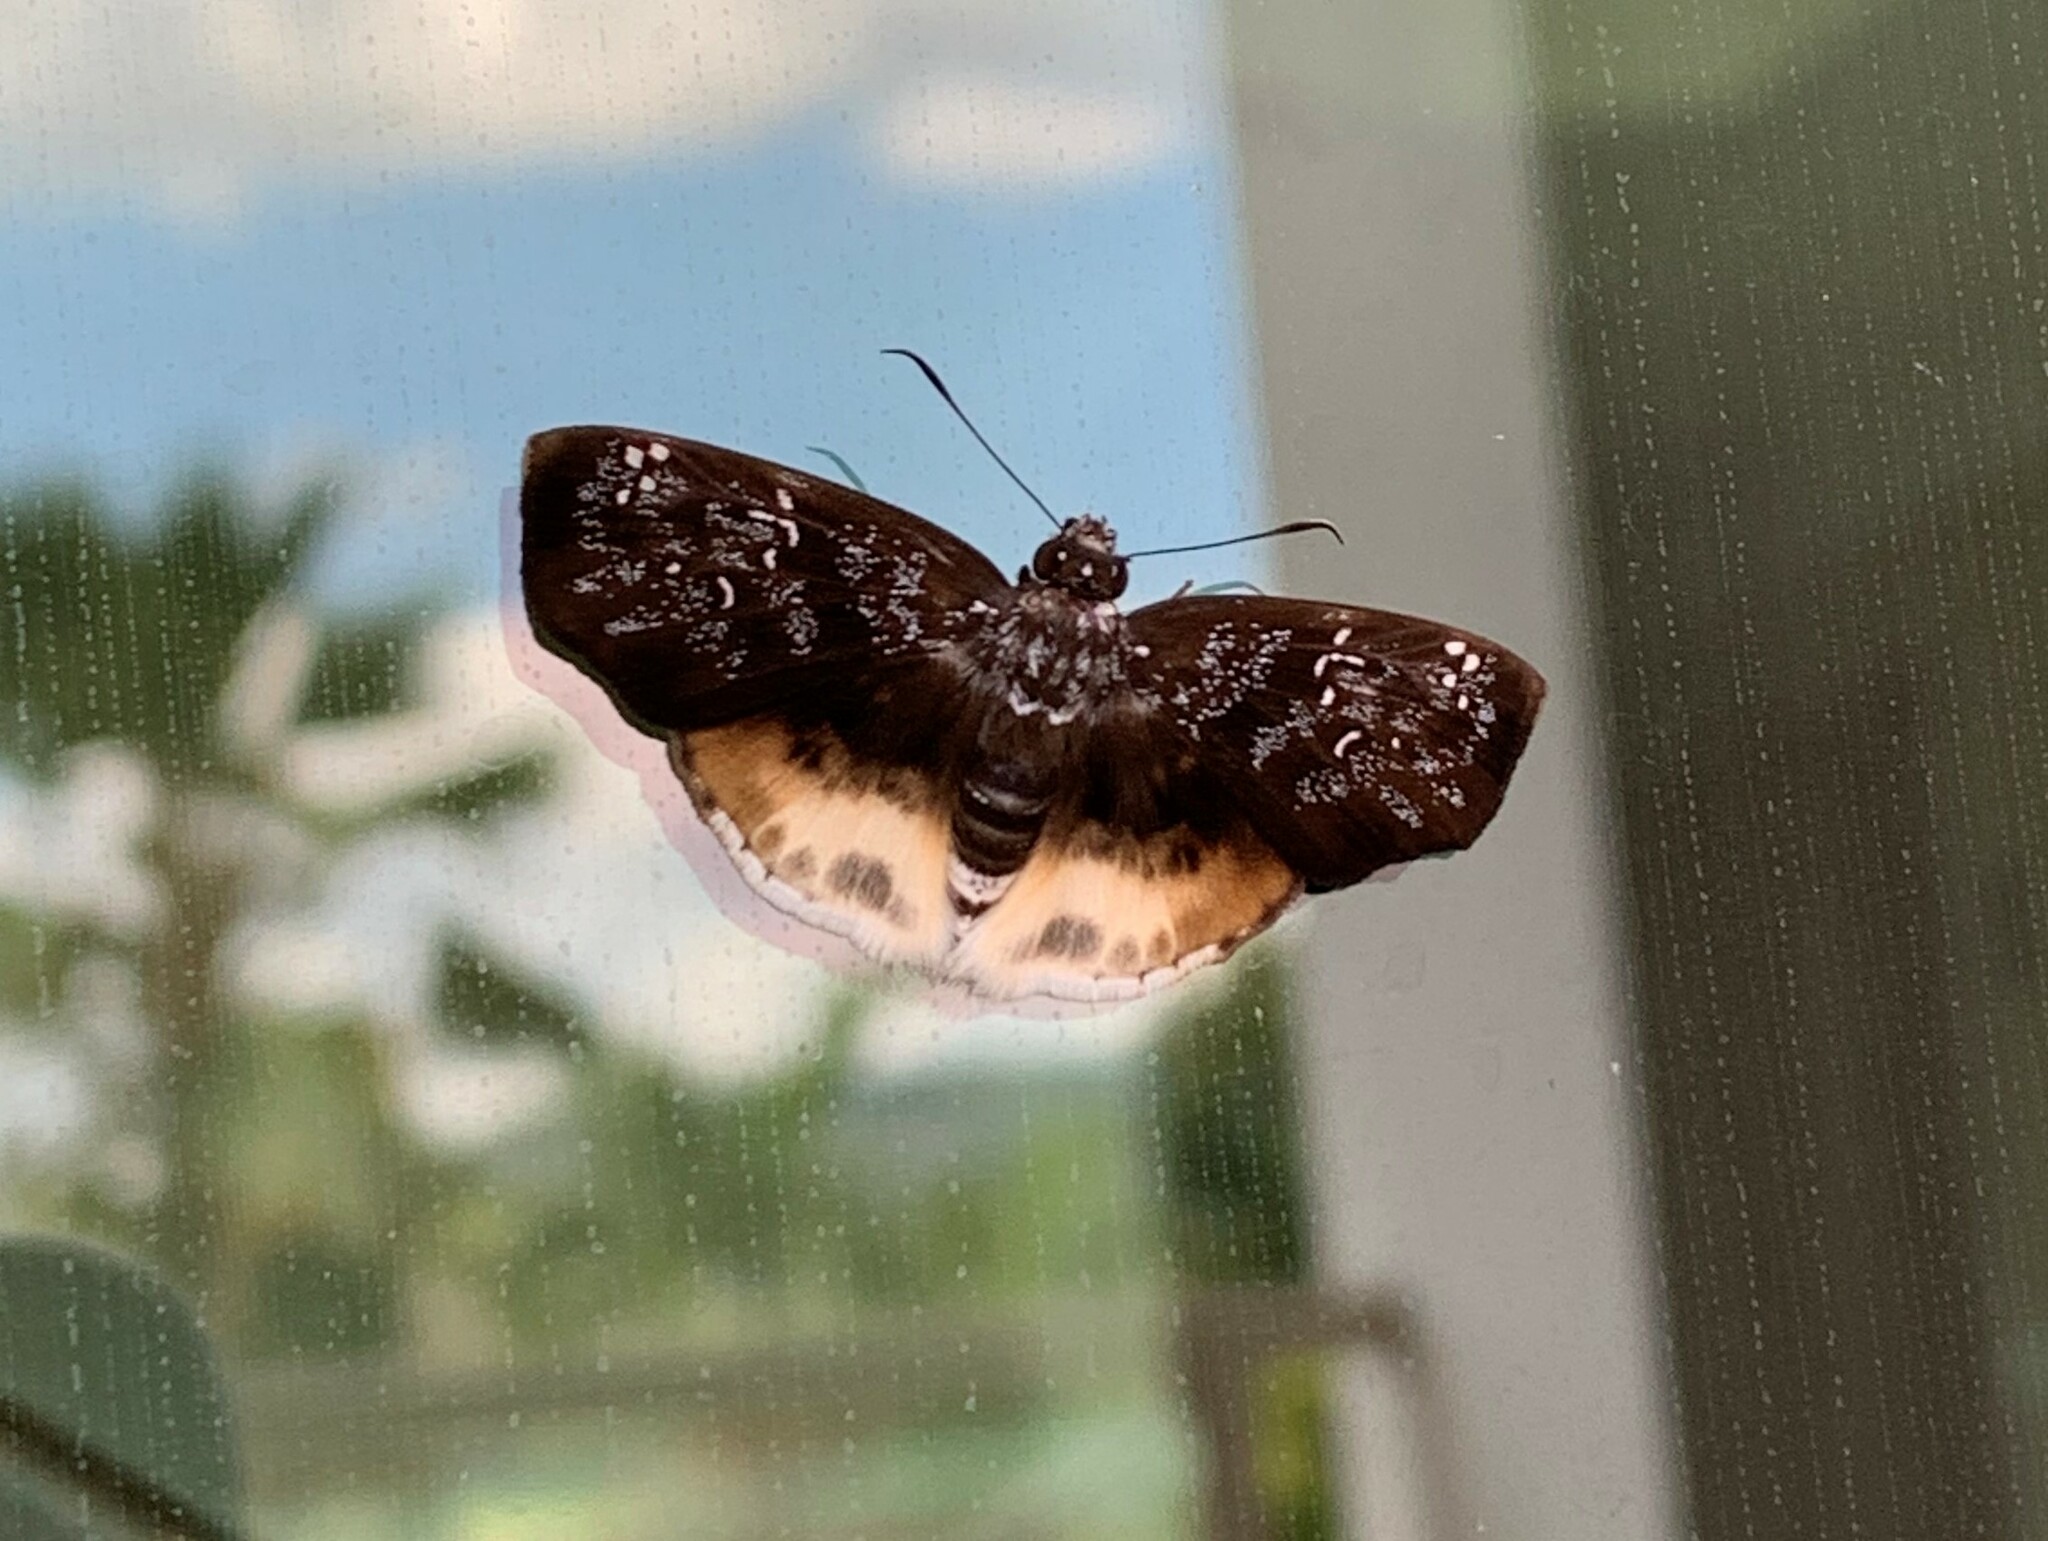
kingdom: Animalia
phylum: Arthropoda
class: Insecta
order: Lepidoptera
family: Hesperiidae
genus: Spioniades
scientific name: Spioniades artemides
